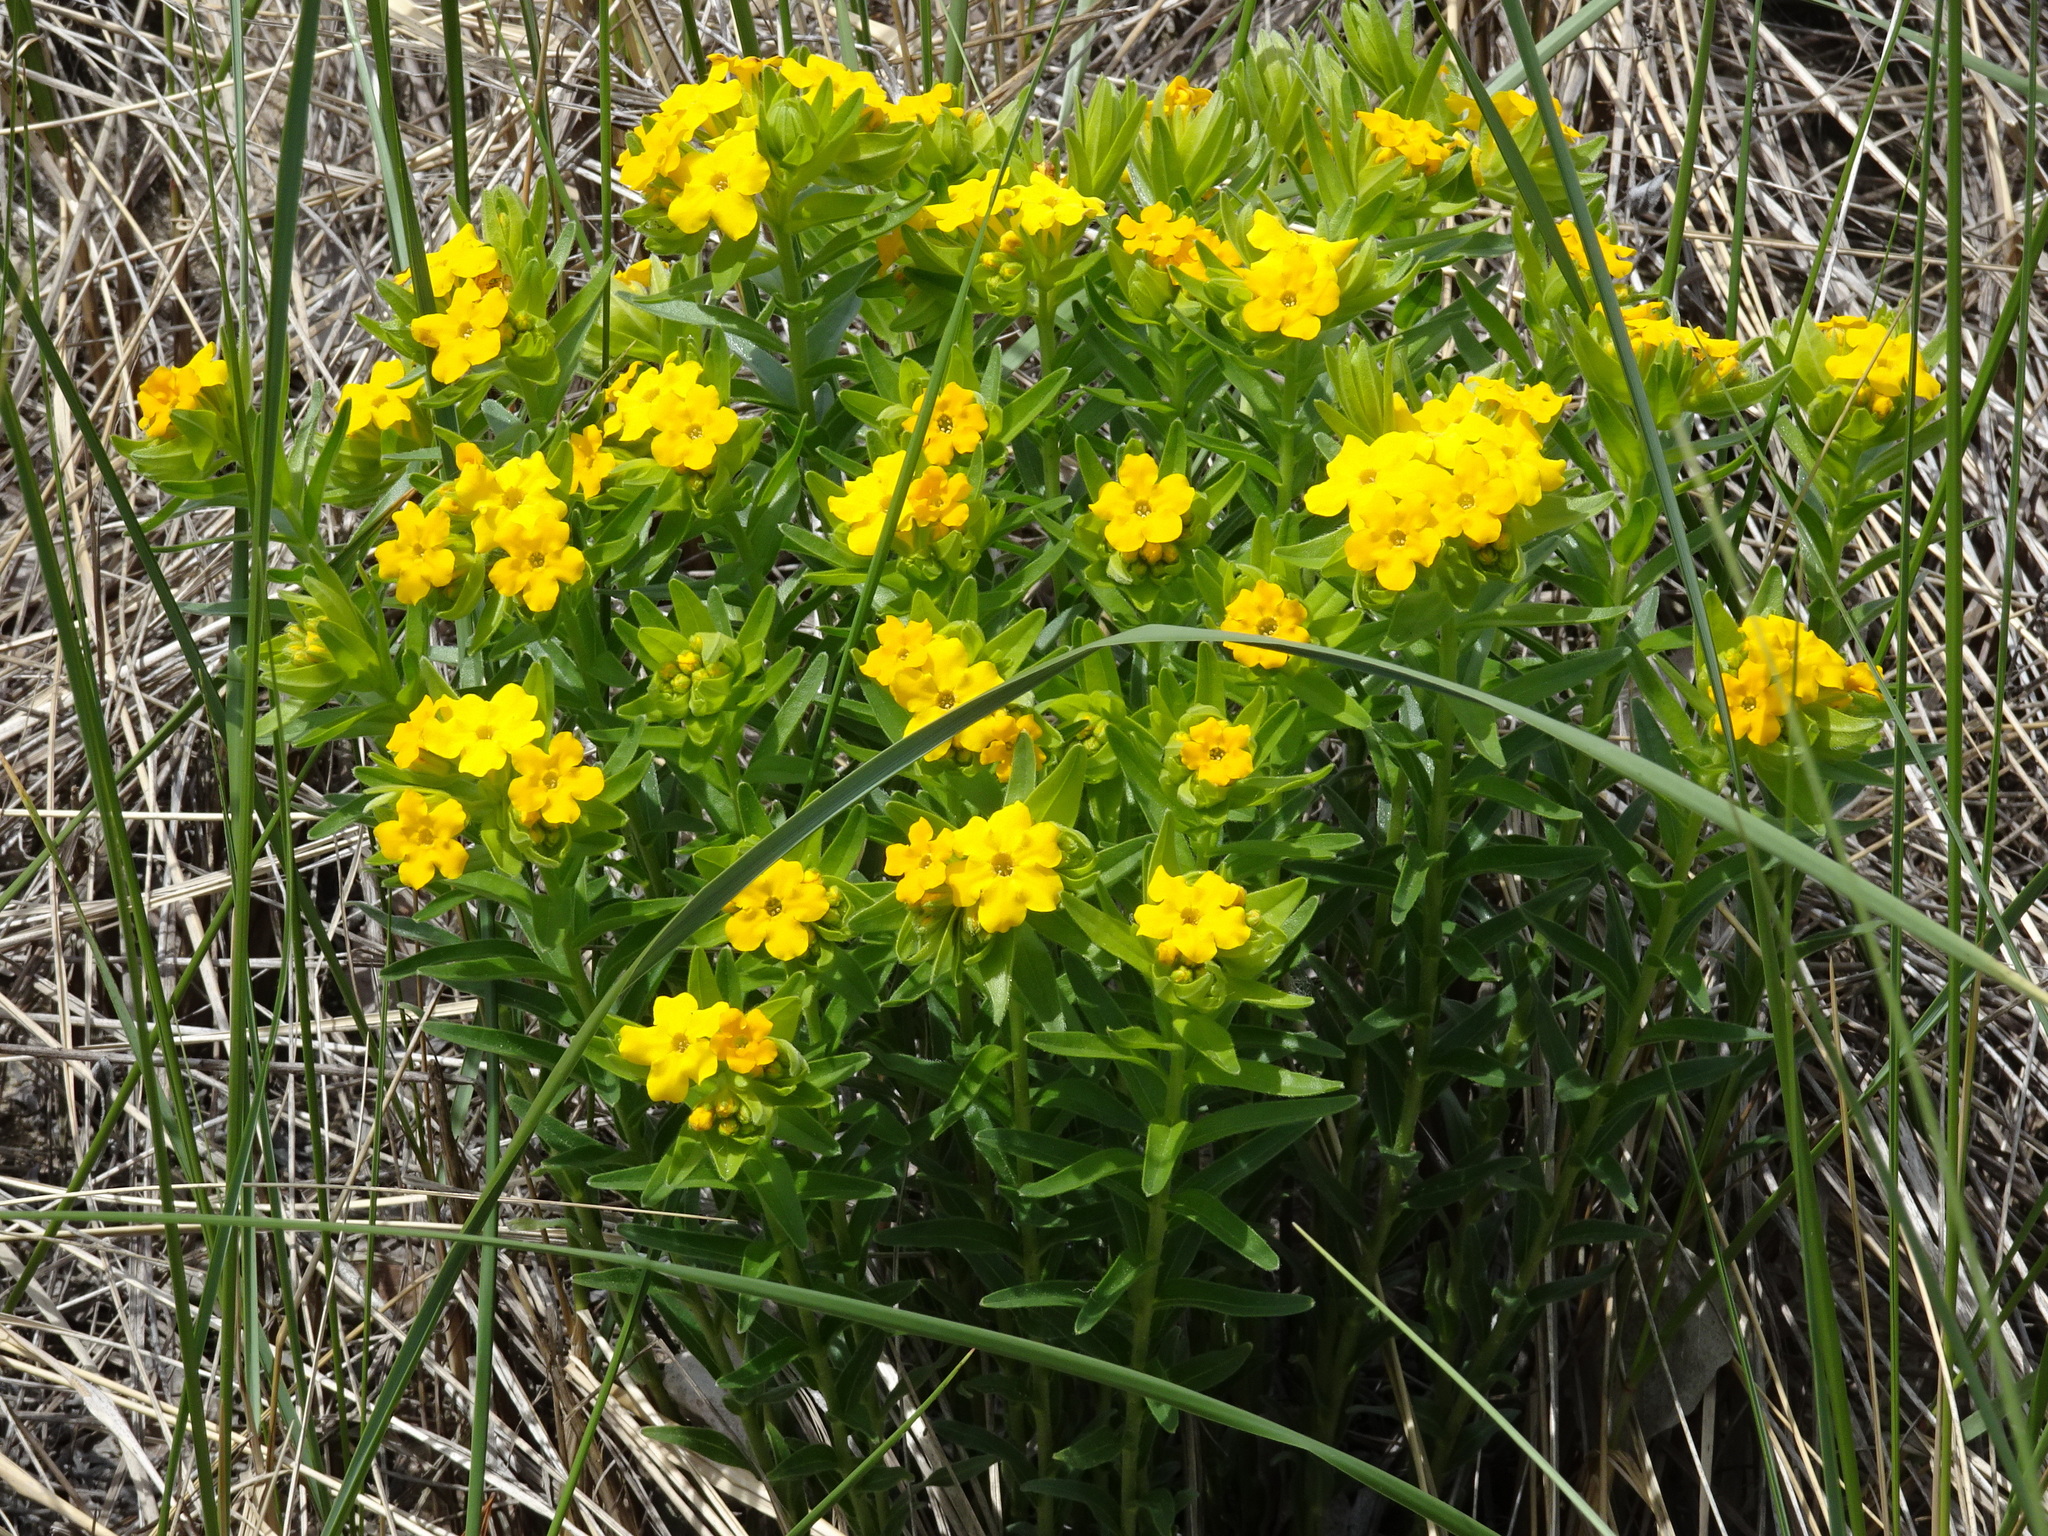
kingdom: Plantae
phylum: Tracheophyta
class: Magnoliopsida
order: Boraginales
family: Boraginaceae
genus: Lithospermum
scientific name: Lithospermum caroliniense
